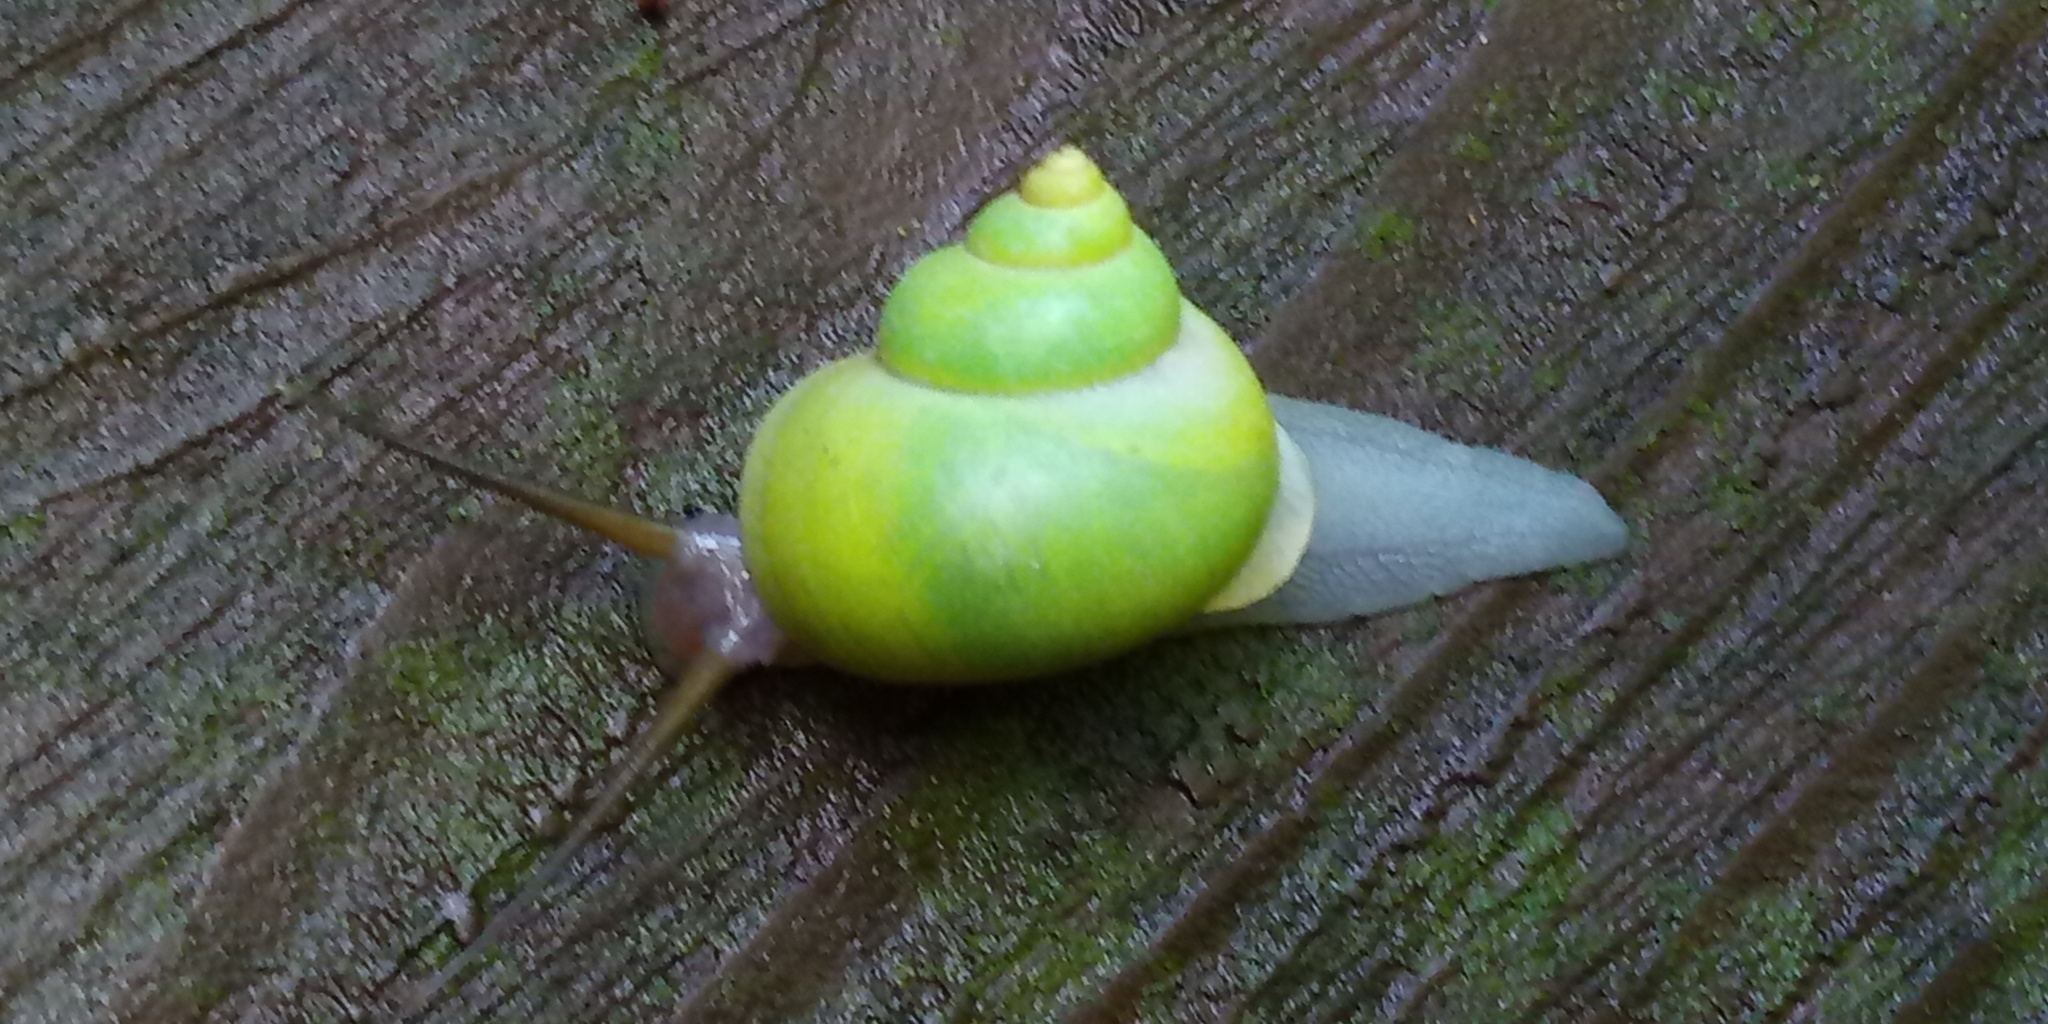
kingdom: Animalia
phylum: Mollusca
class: Gastropoda
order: Architaenioglossa
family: Cyclophoridae
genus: Leptopoma
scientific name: Leptopoma nitidum
